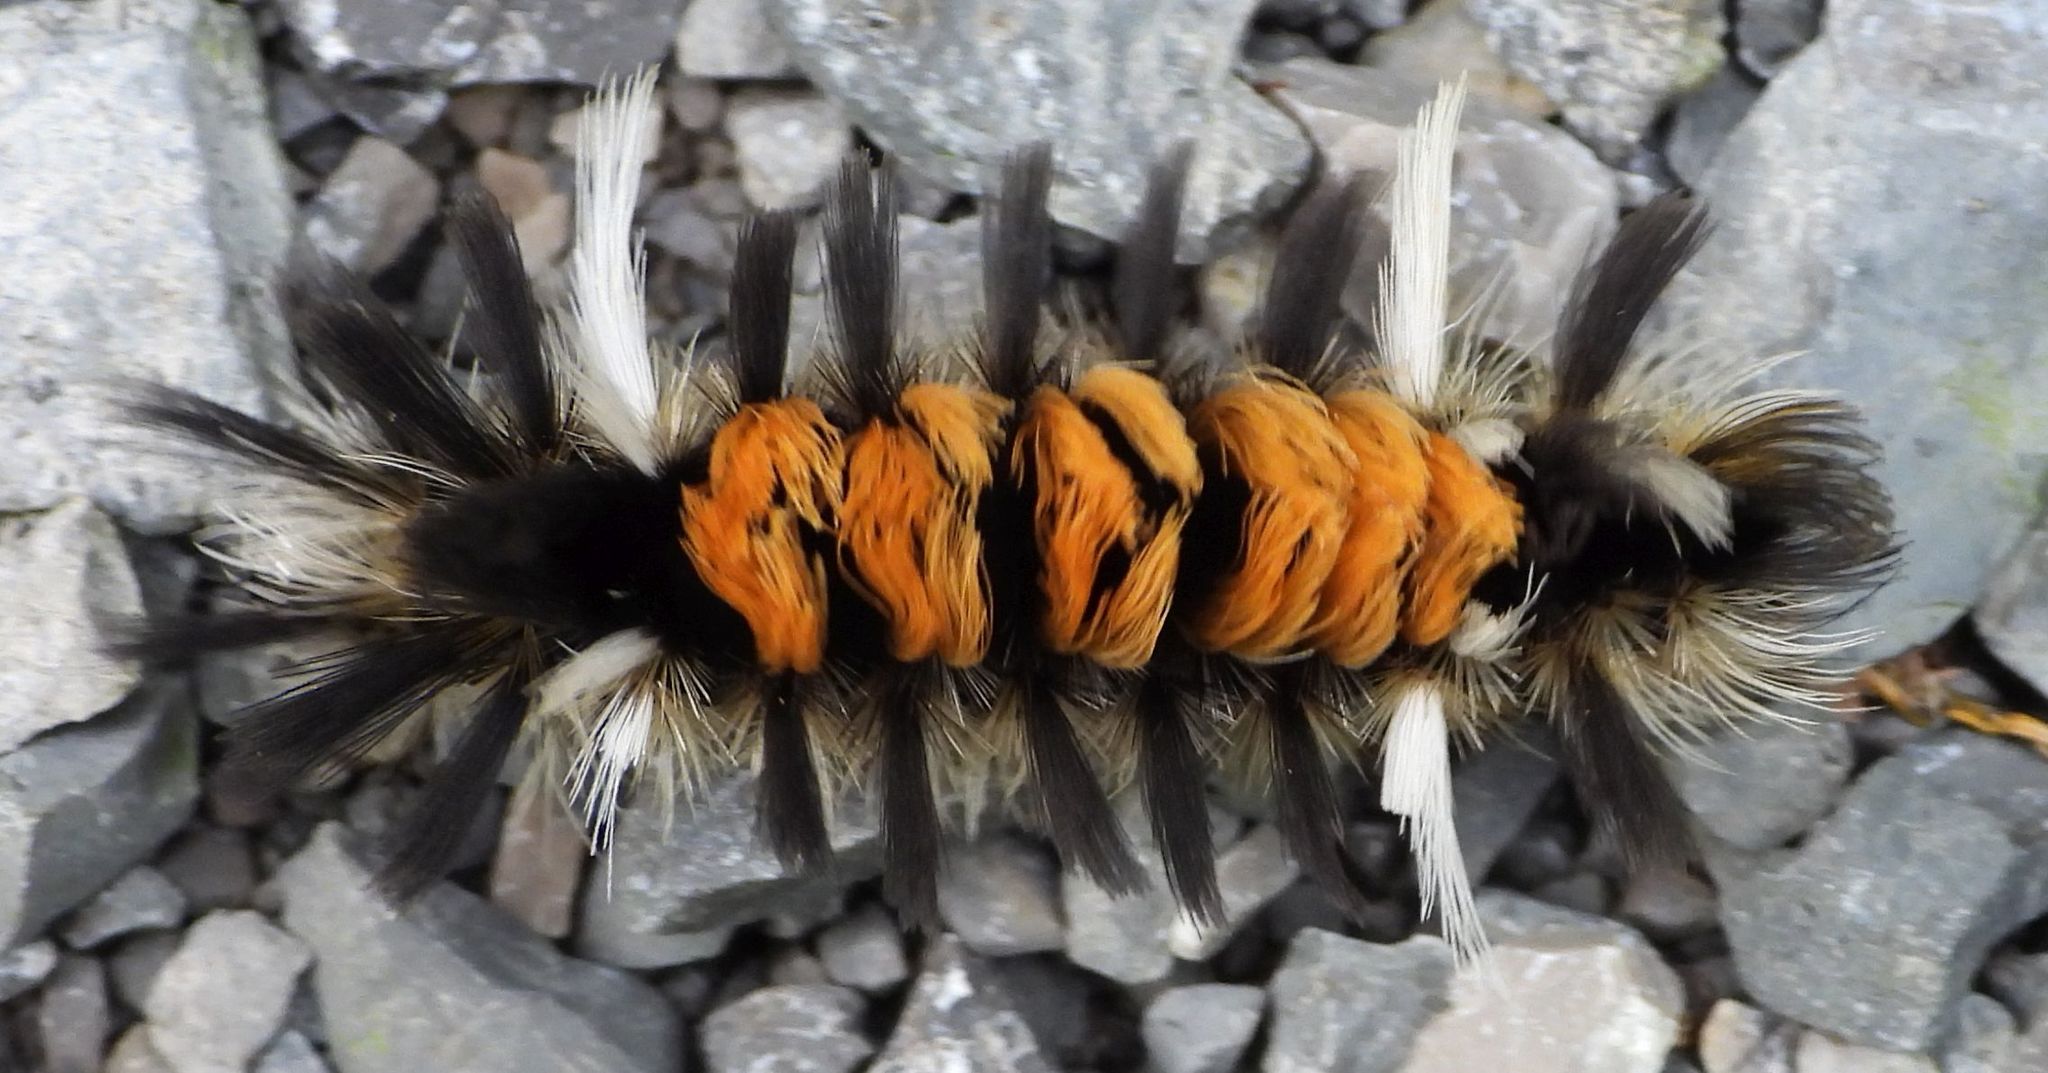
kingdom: Animalia
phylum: Arthropoda
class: Insecta
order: Lepidoptera
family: Erebidae
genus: Euchaetes
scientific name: Euchaetes egle
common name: Milkweed tussock moth
